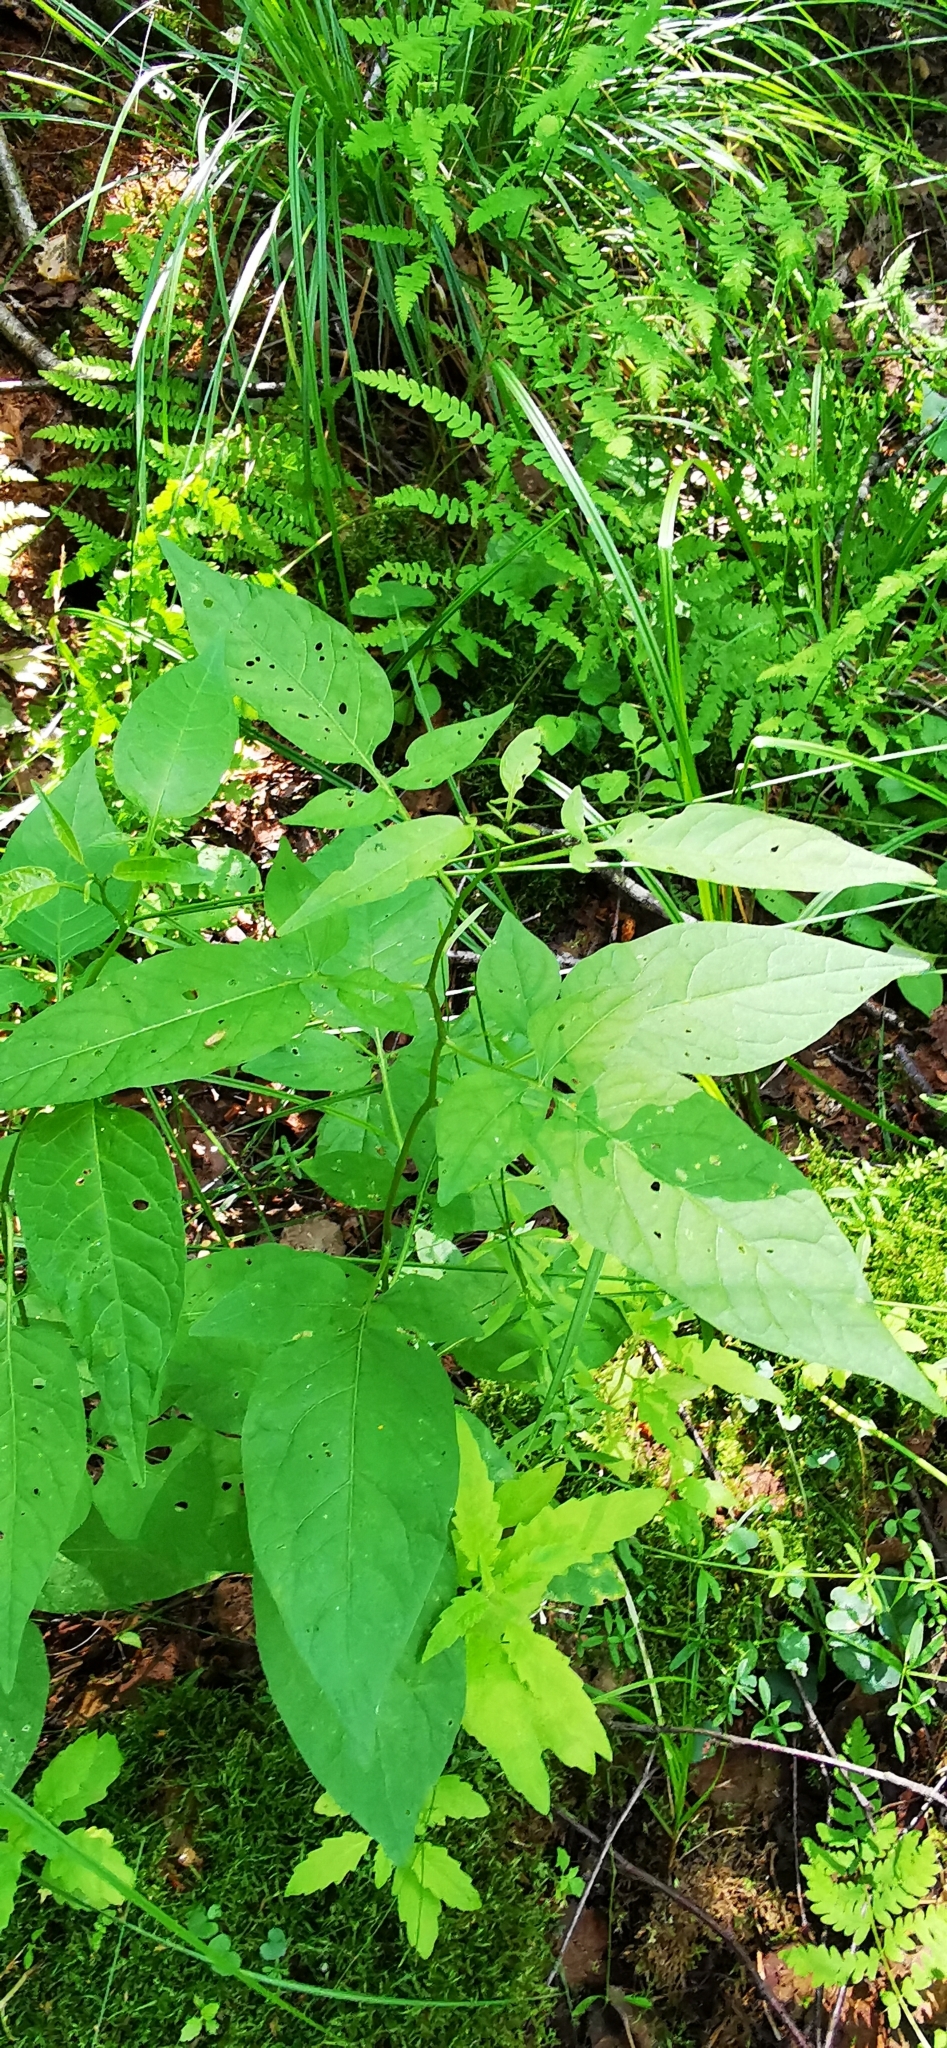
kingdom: Plantae
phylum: Tracheophyta
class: Magnoliopsida
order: Solanales
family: Solanaceae
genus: Solanum
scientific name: Solanum dulcamara
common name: Climbing nightshade
